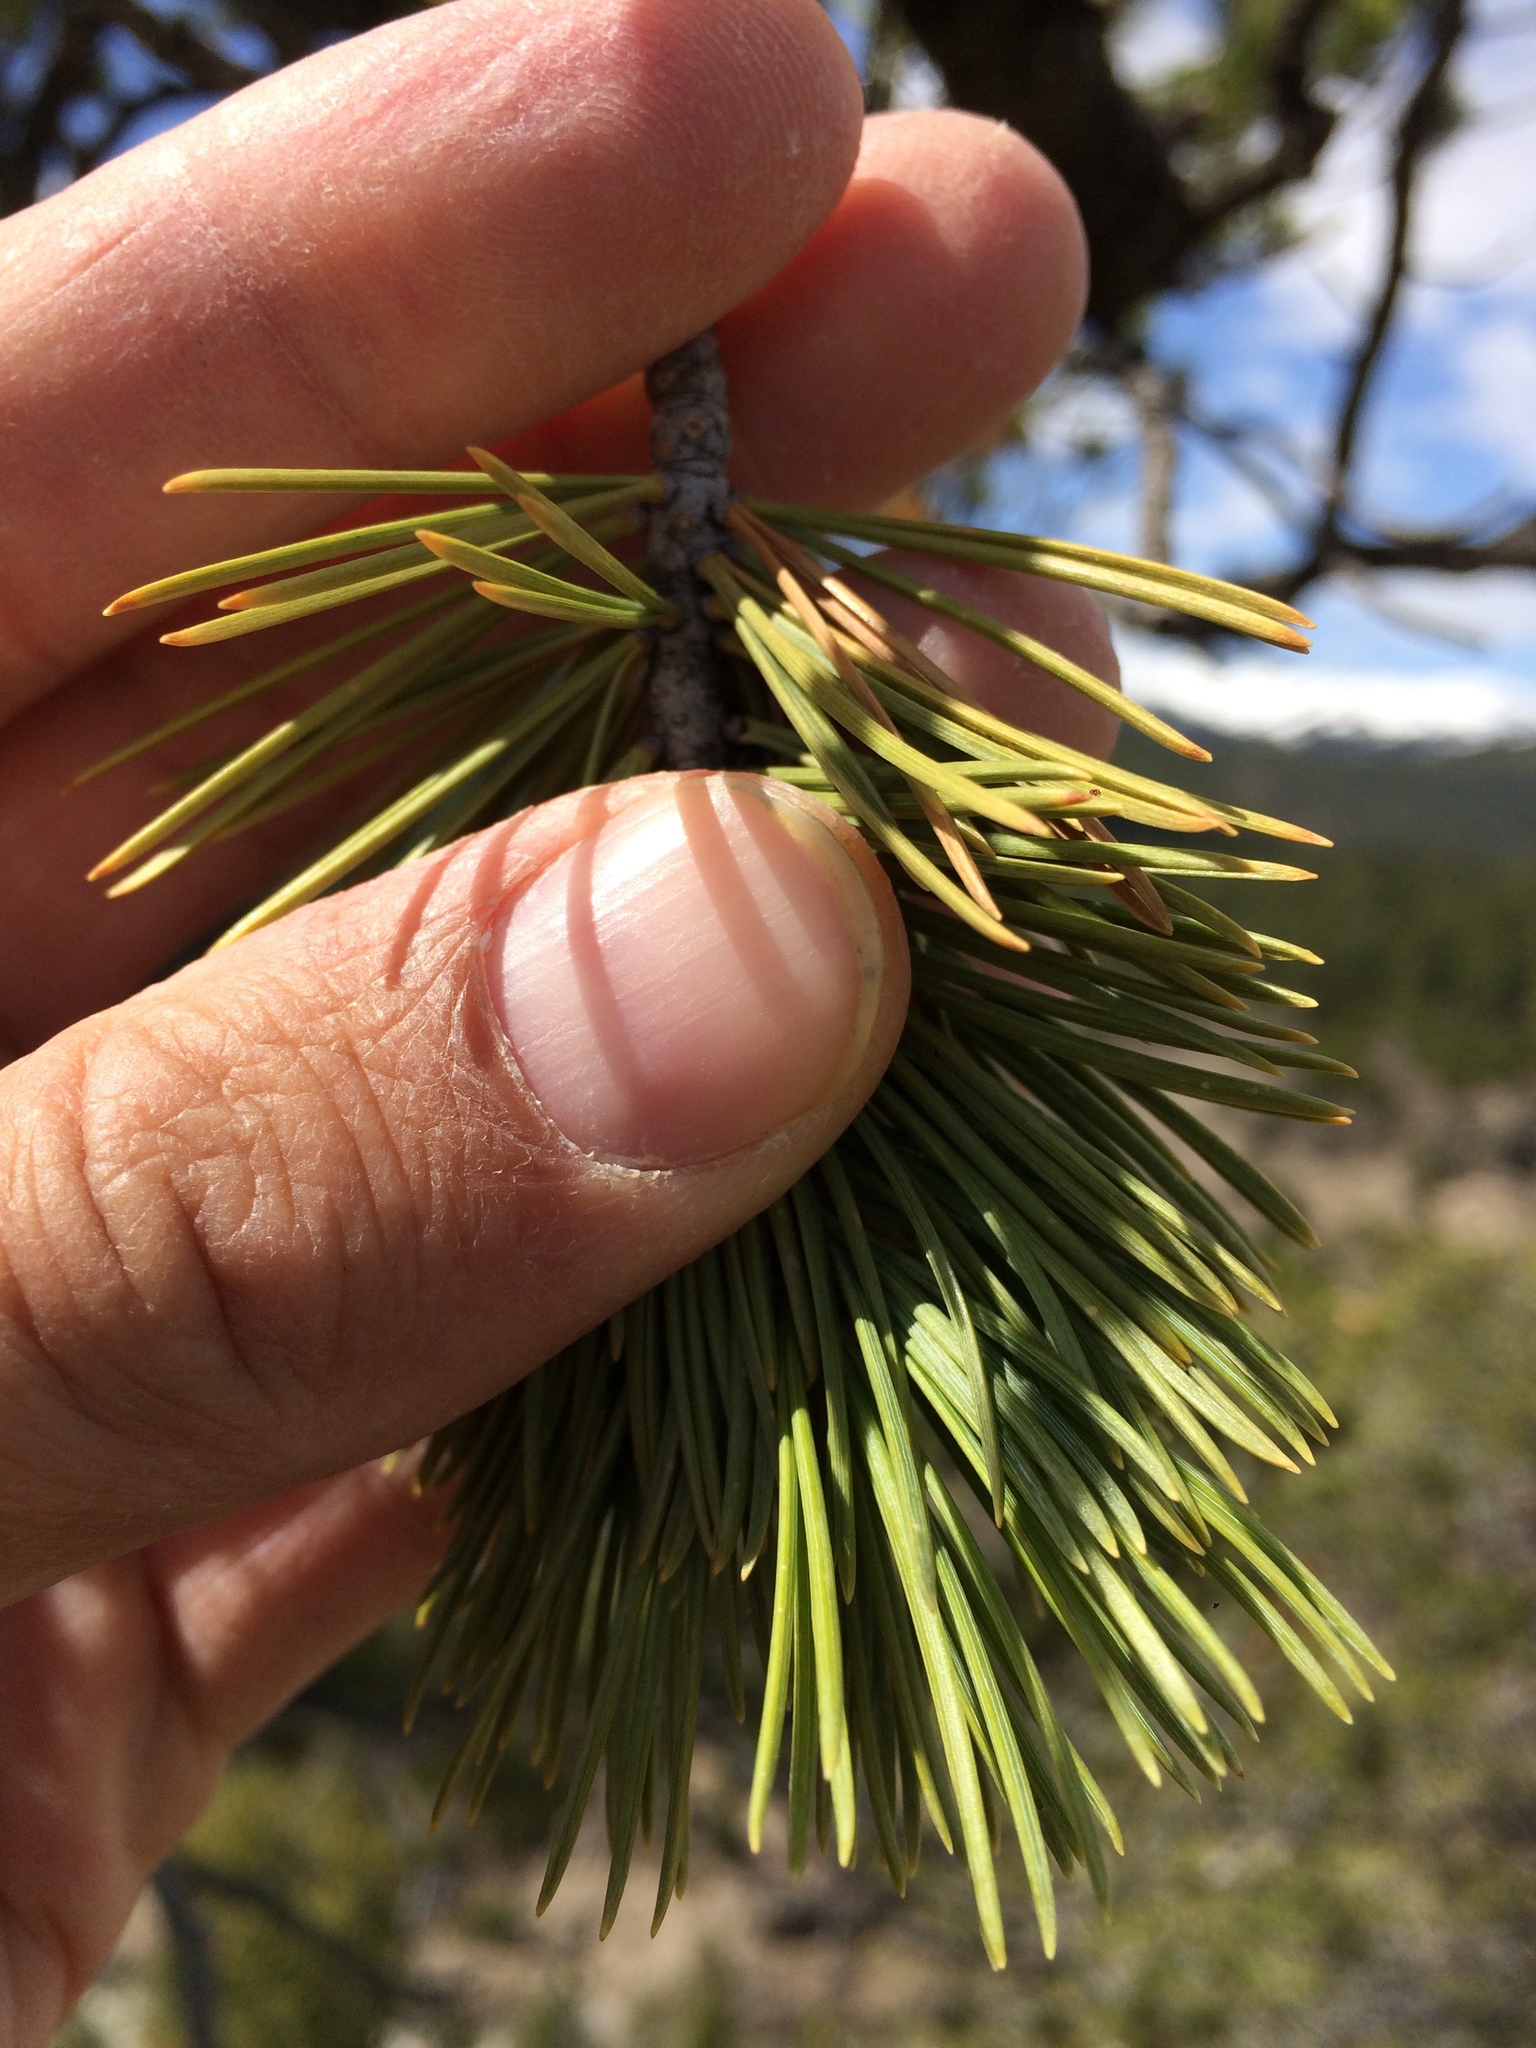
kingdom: Plantae
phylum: Tracheophyta
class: Pinopsida
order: Pinales
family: Pinaceae
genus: Pinus
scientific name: Pinus flexilis
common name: Limber pine
